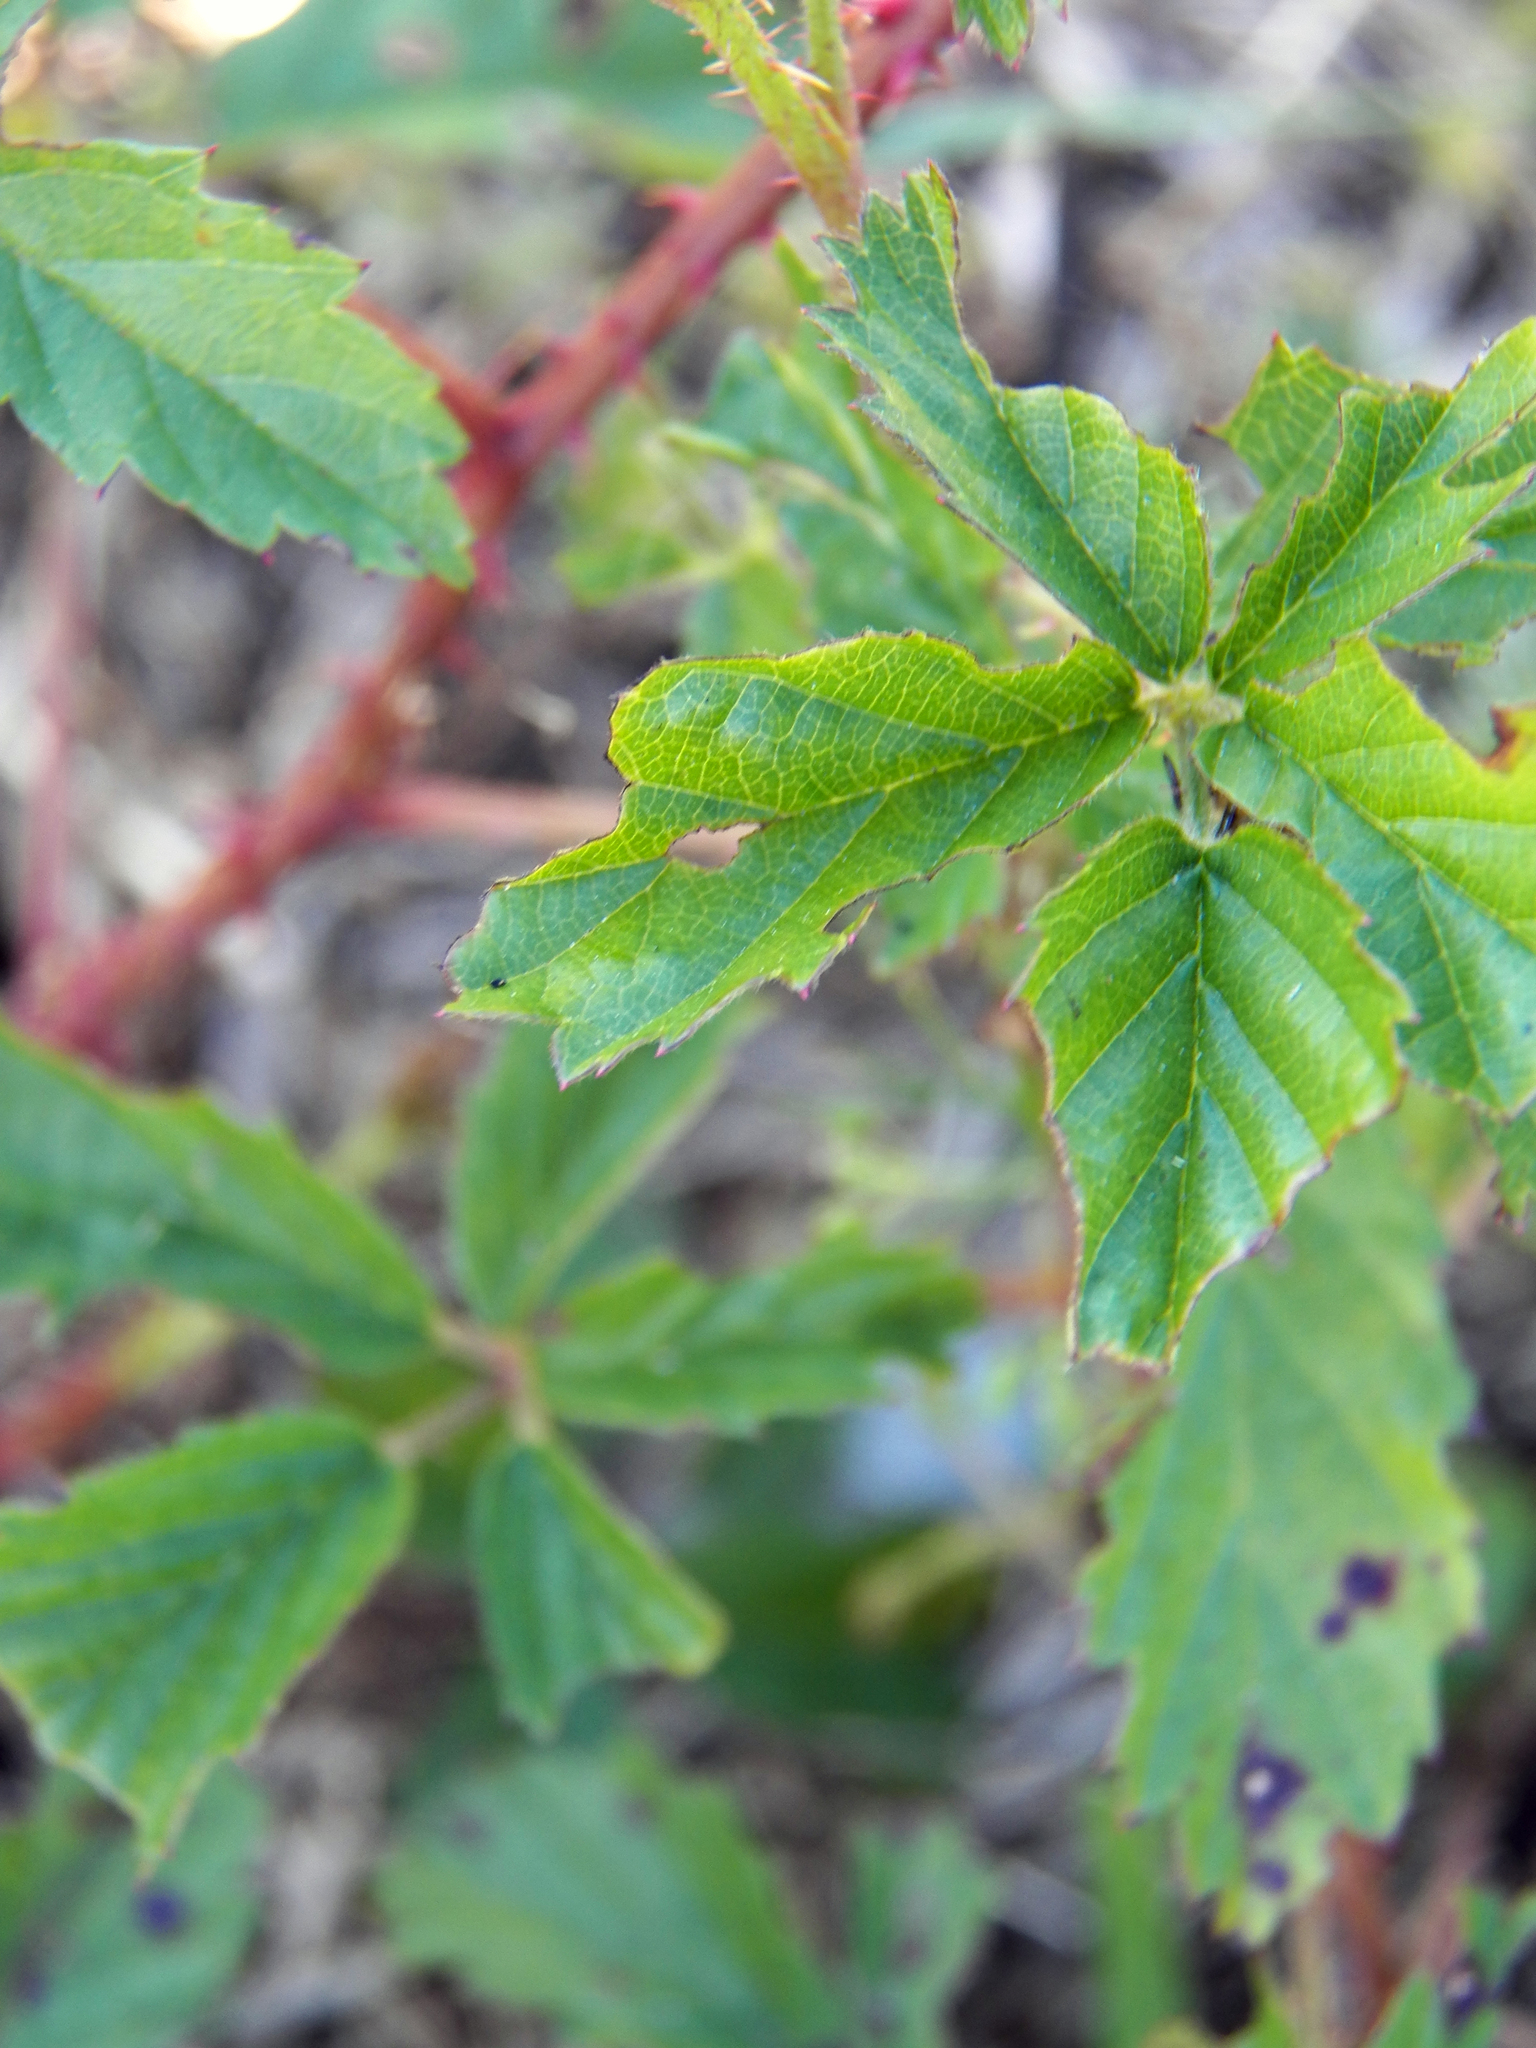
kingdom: Plantae
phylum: Tracheophyta
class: Magnoliopsida
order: Rosales
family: Rosaceae
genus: Rubus
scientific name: Rubus trivialis
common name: Southern dewberry
